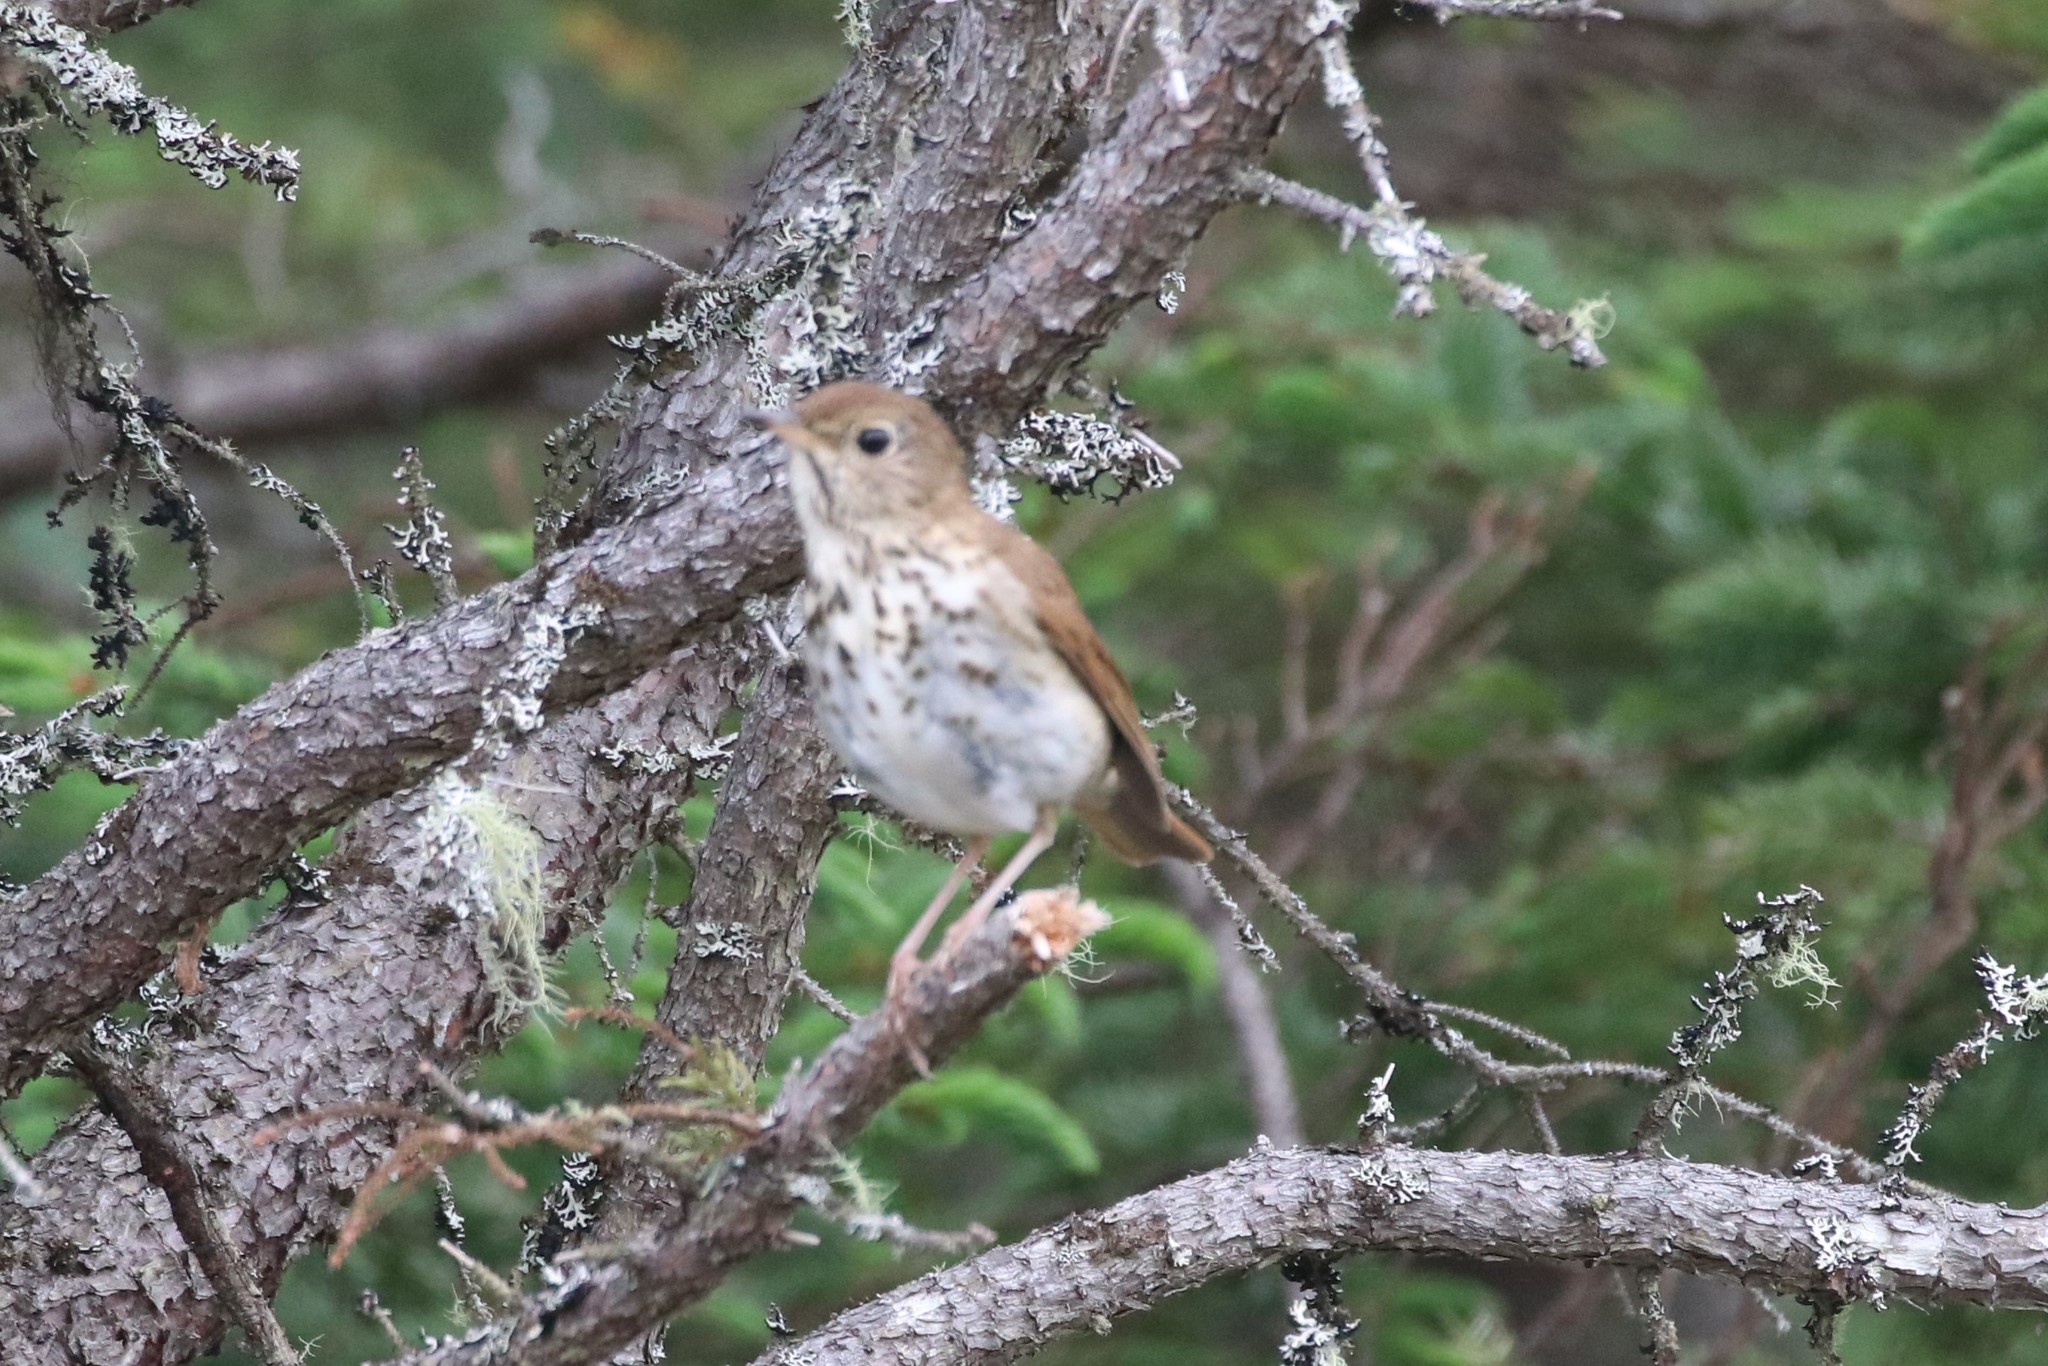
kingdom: Animalia
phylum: Chordata
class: Aves
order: Passeriformes
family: Turdidae
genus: Catharus
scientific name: Catharus guttatus
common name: Hermit thrush
